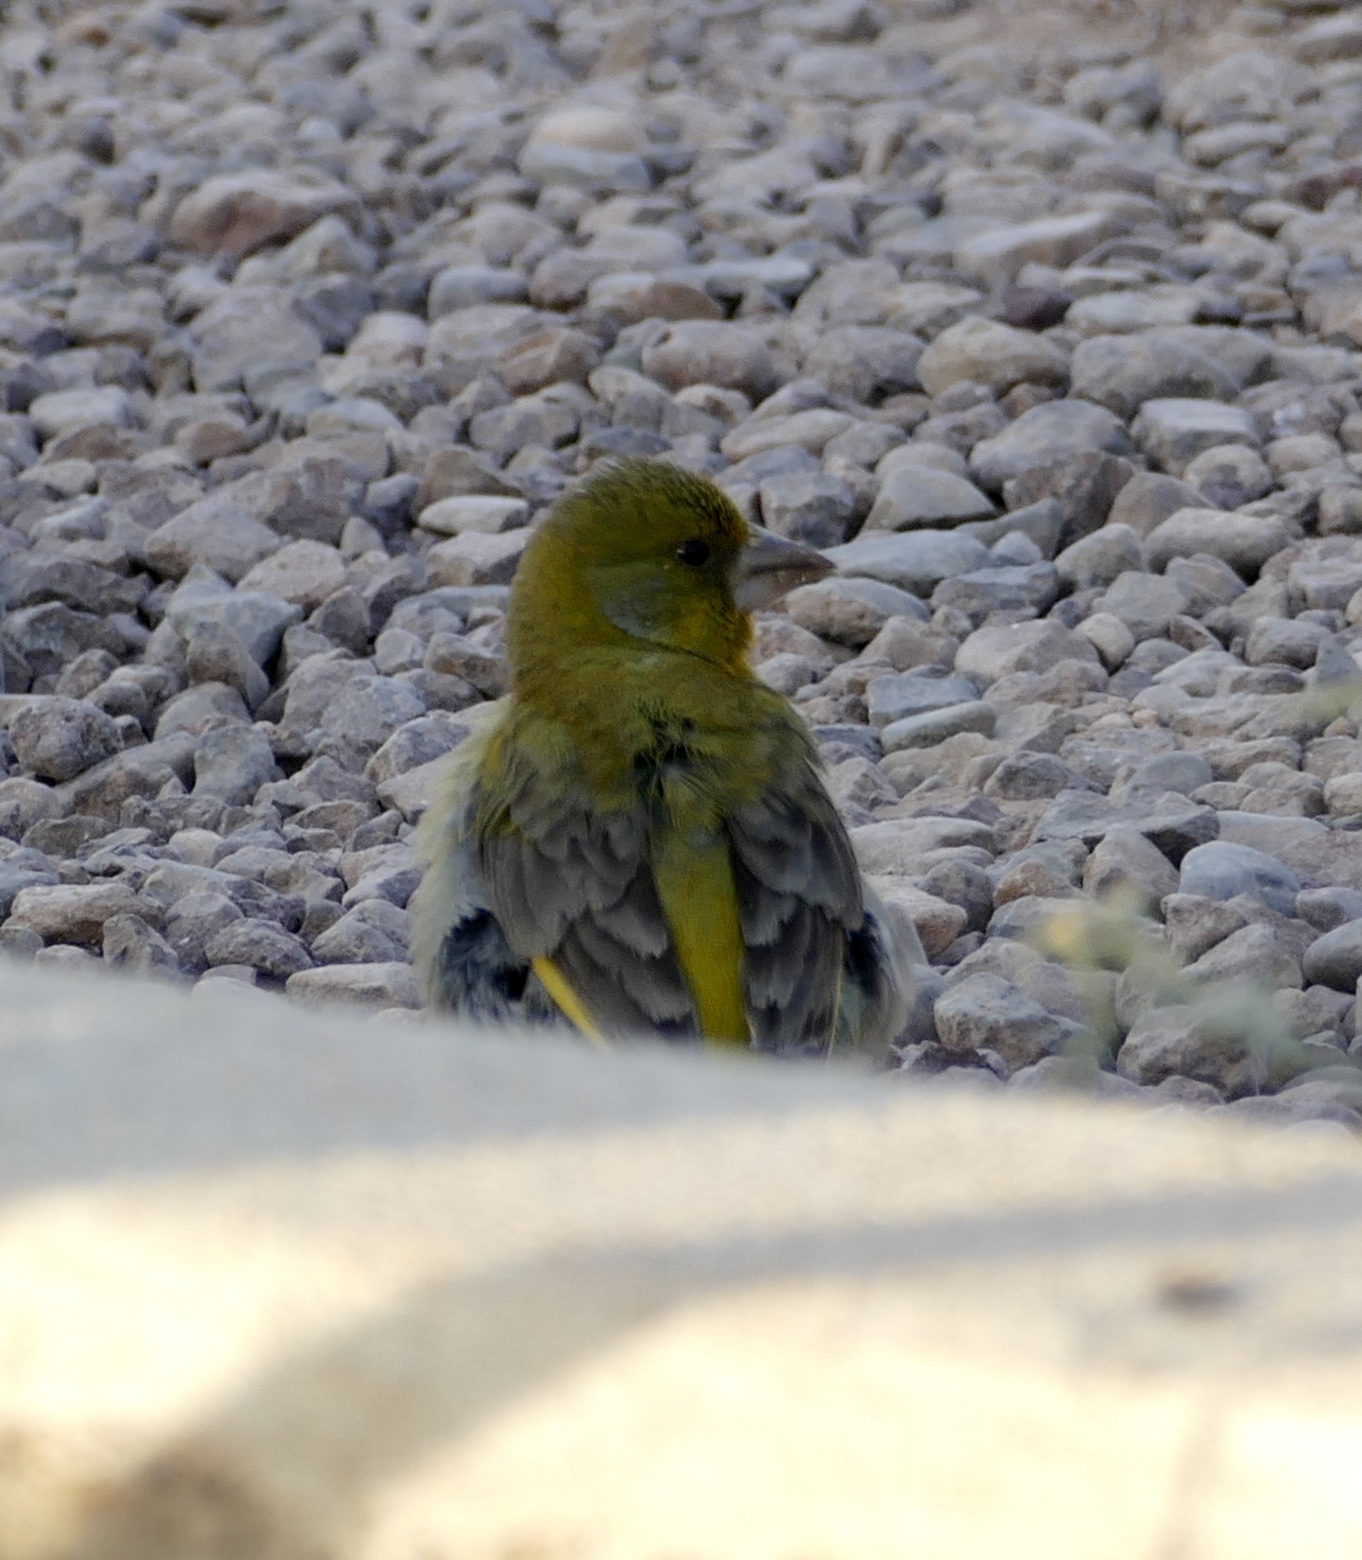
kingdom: Plantae
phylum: Tracheophyta
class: Liliopsida
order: Poales
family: Poaceae
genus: Chloris
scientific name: Chloris chloris
